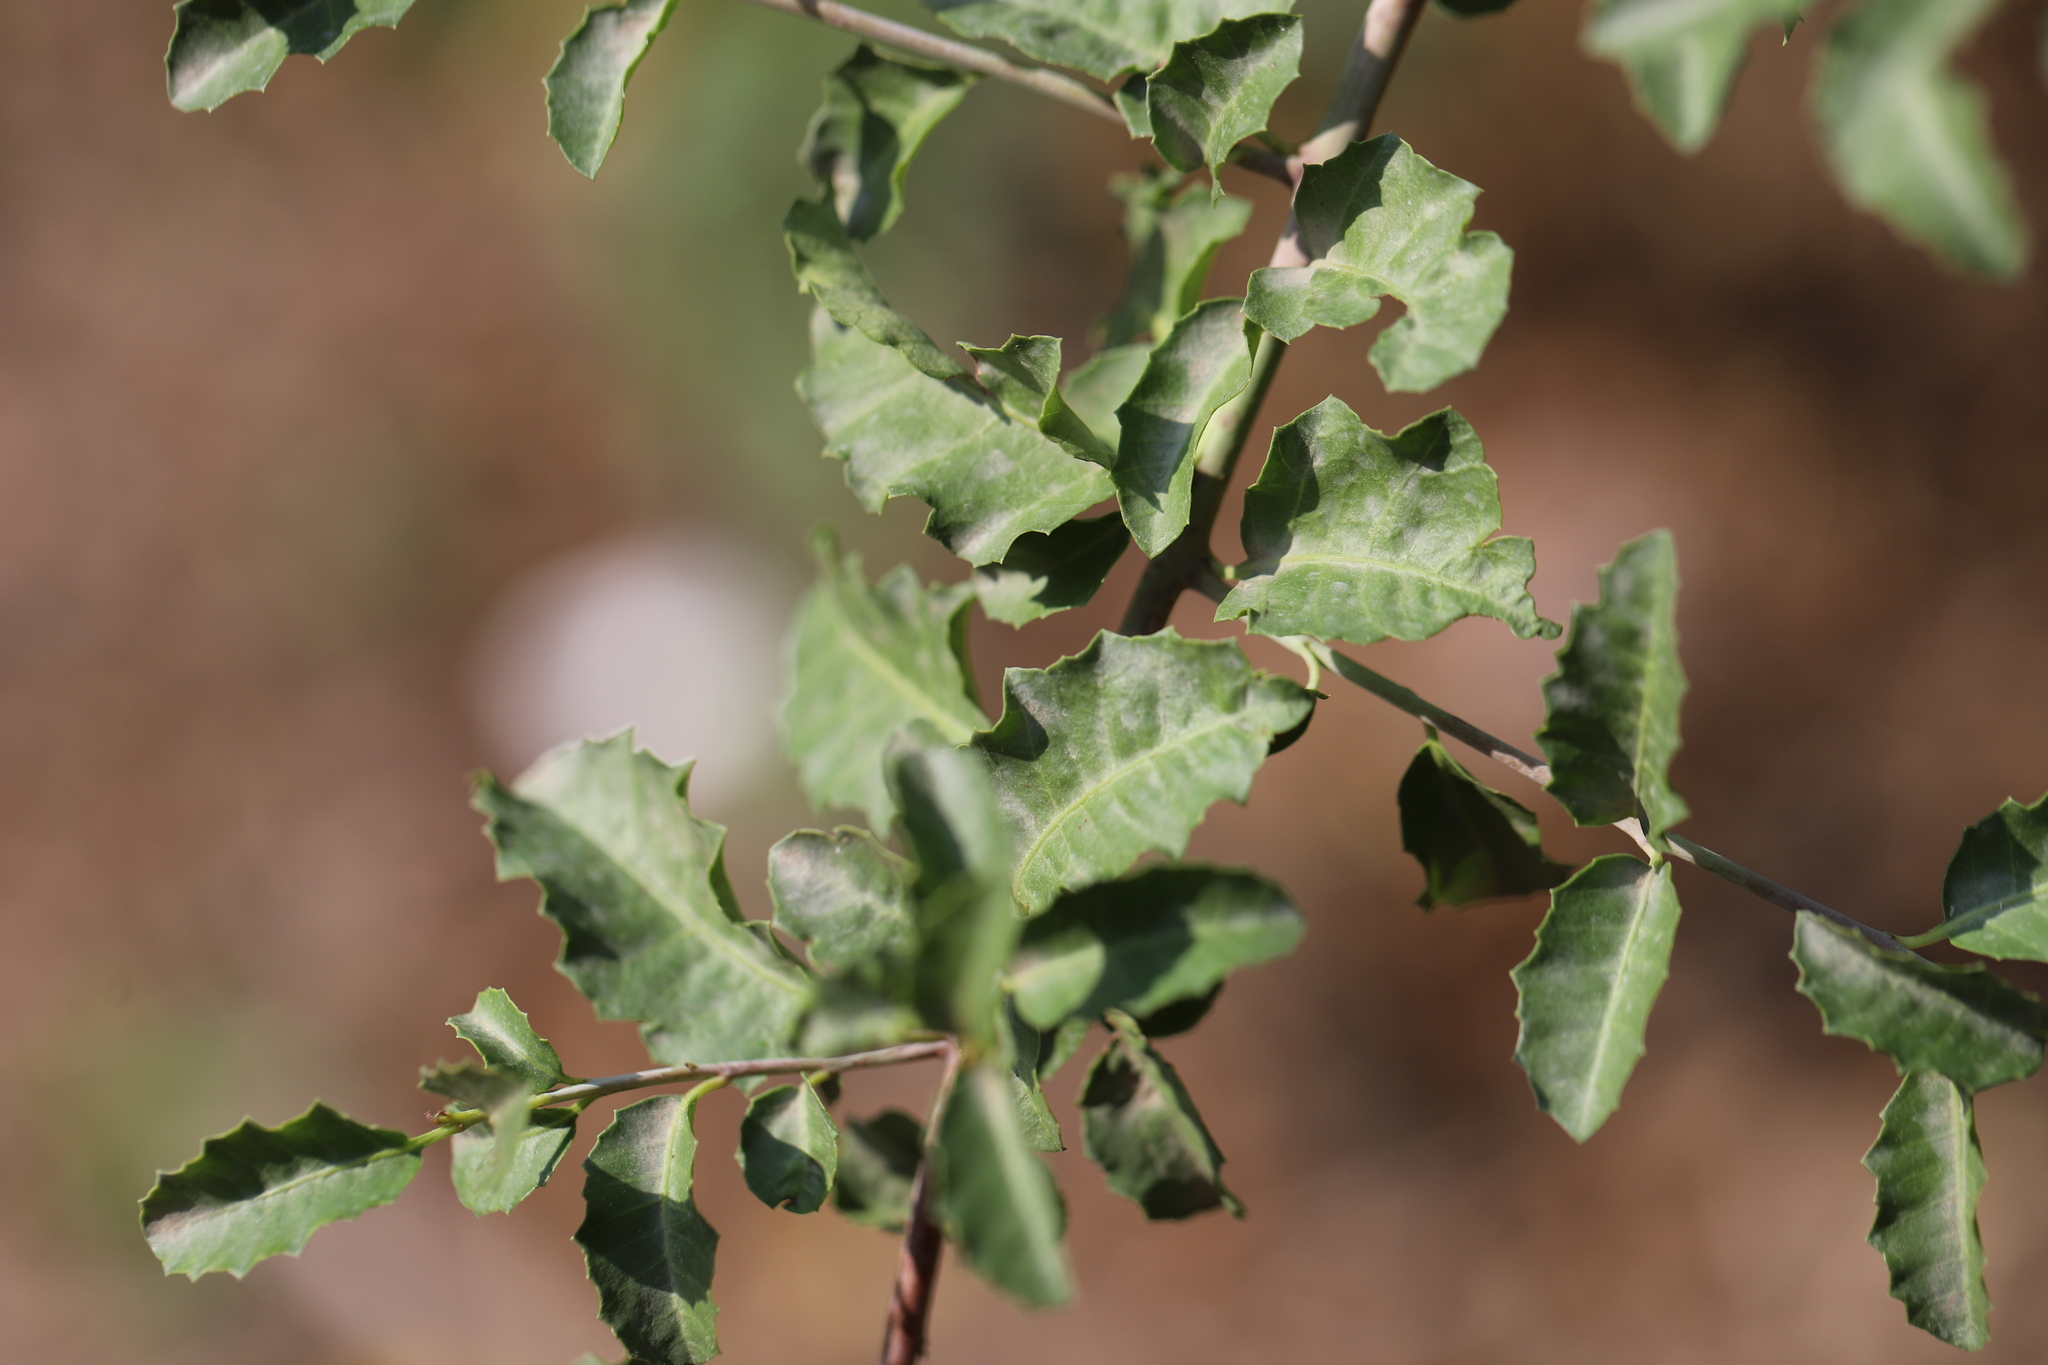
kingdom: Plantae
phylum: Tracheophyta
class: Magnoliopsida
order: Sapindales
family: Anacardiaceae
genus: Schinus
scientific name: Schinus latifolia
